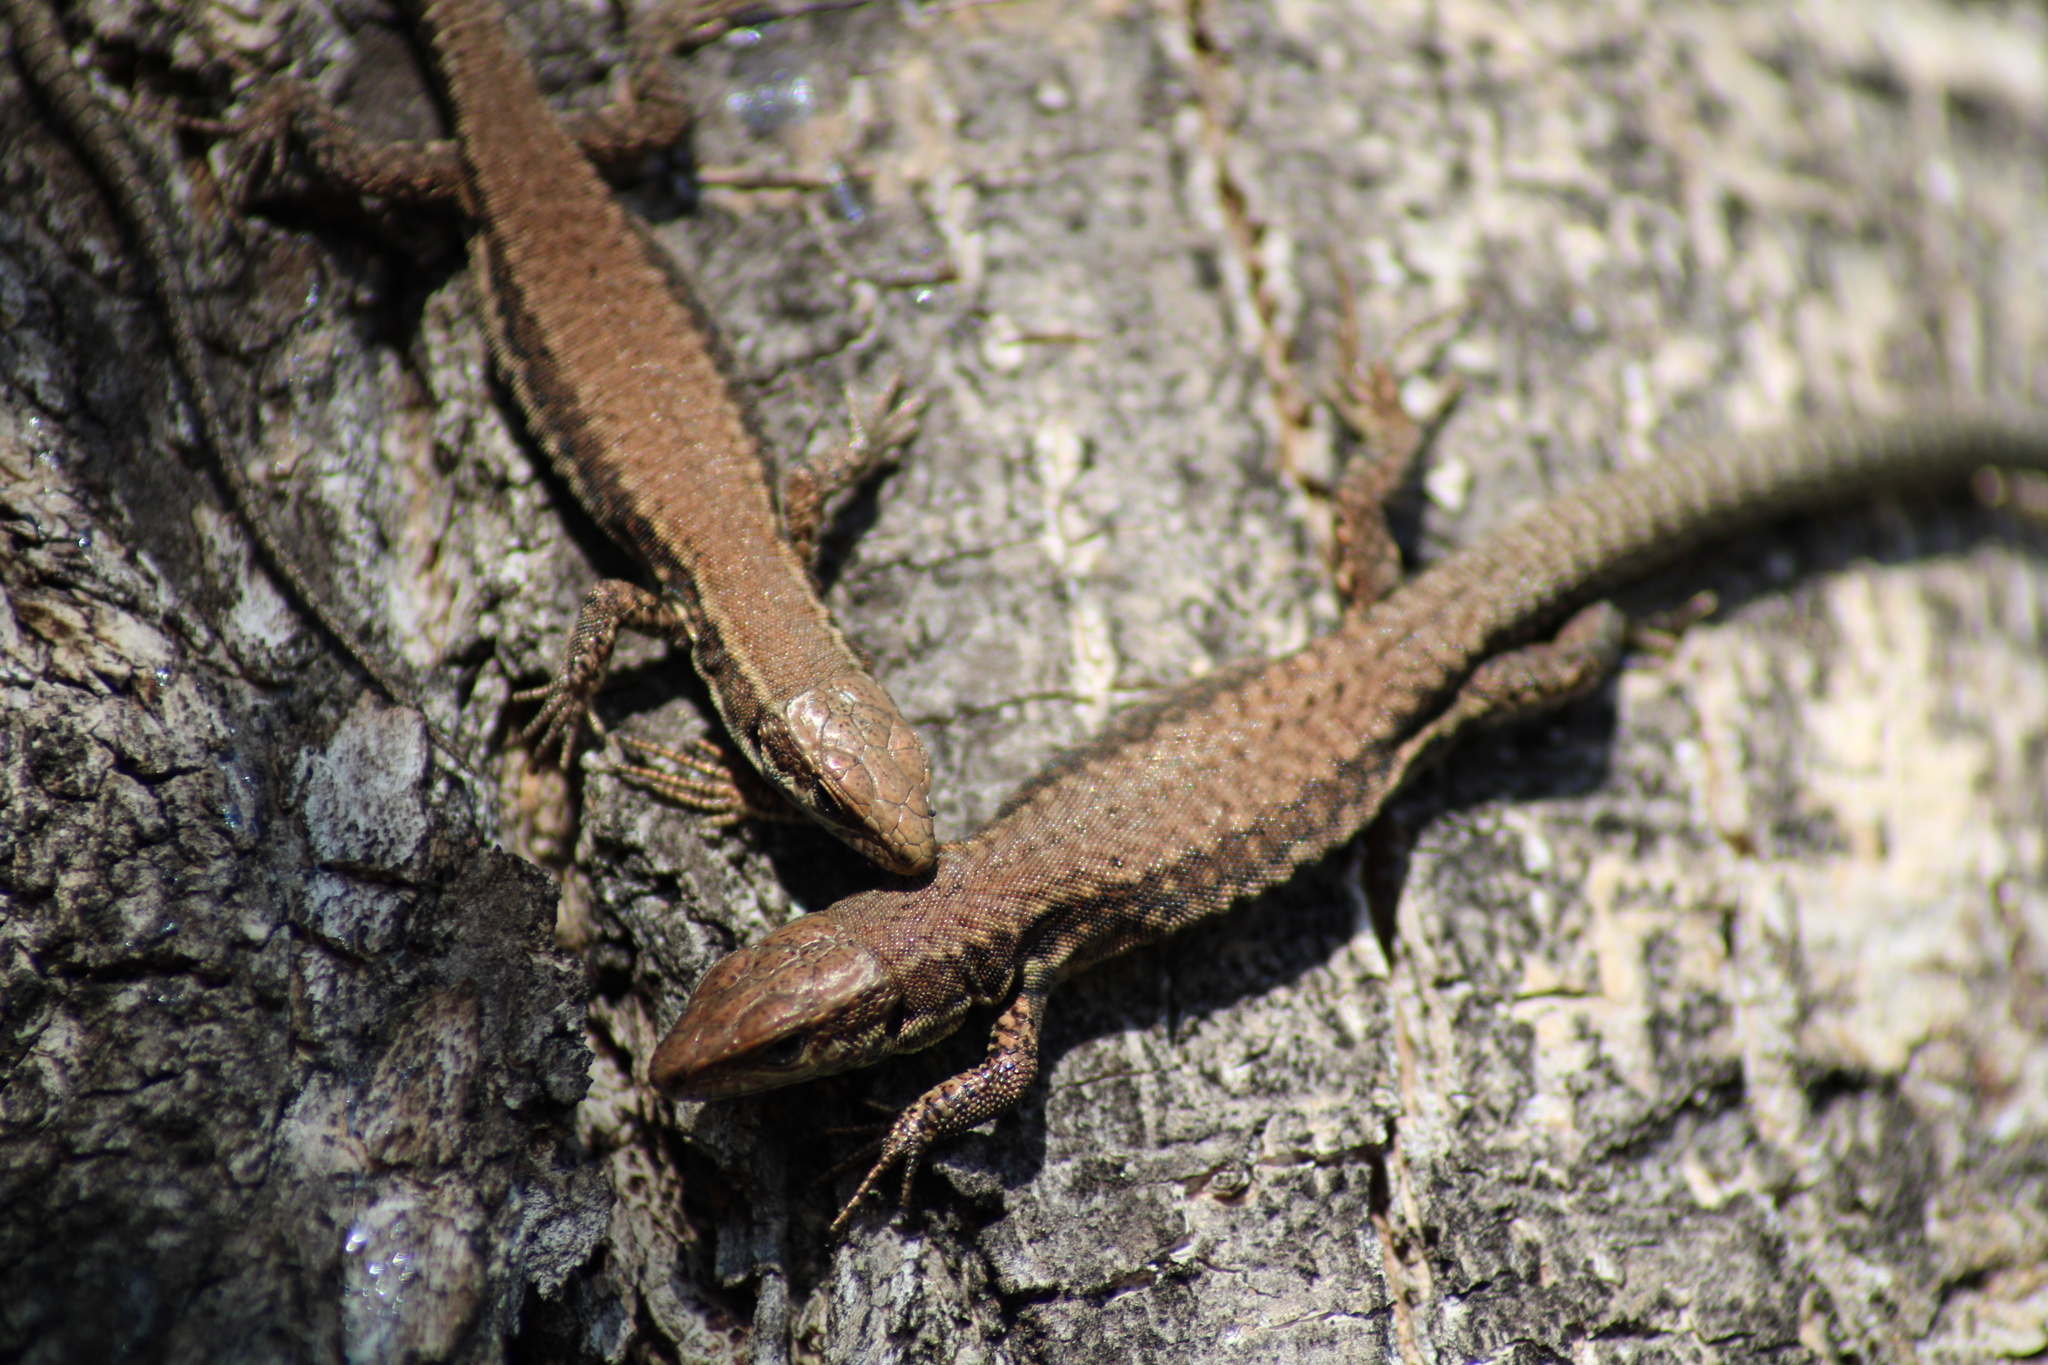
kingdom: Animalia
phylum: Chordata
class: Squamata
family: Lacertidae
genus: Podarcis
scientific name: Podarcis muralis
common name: Common wall lizard
